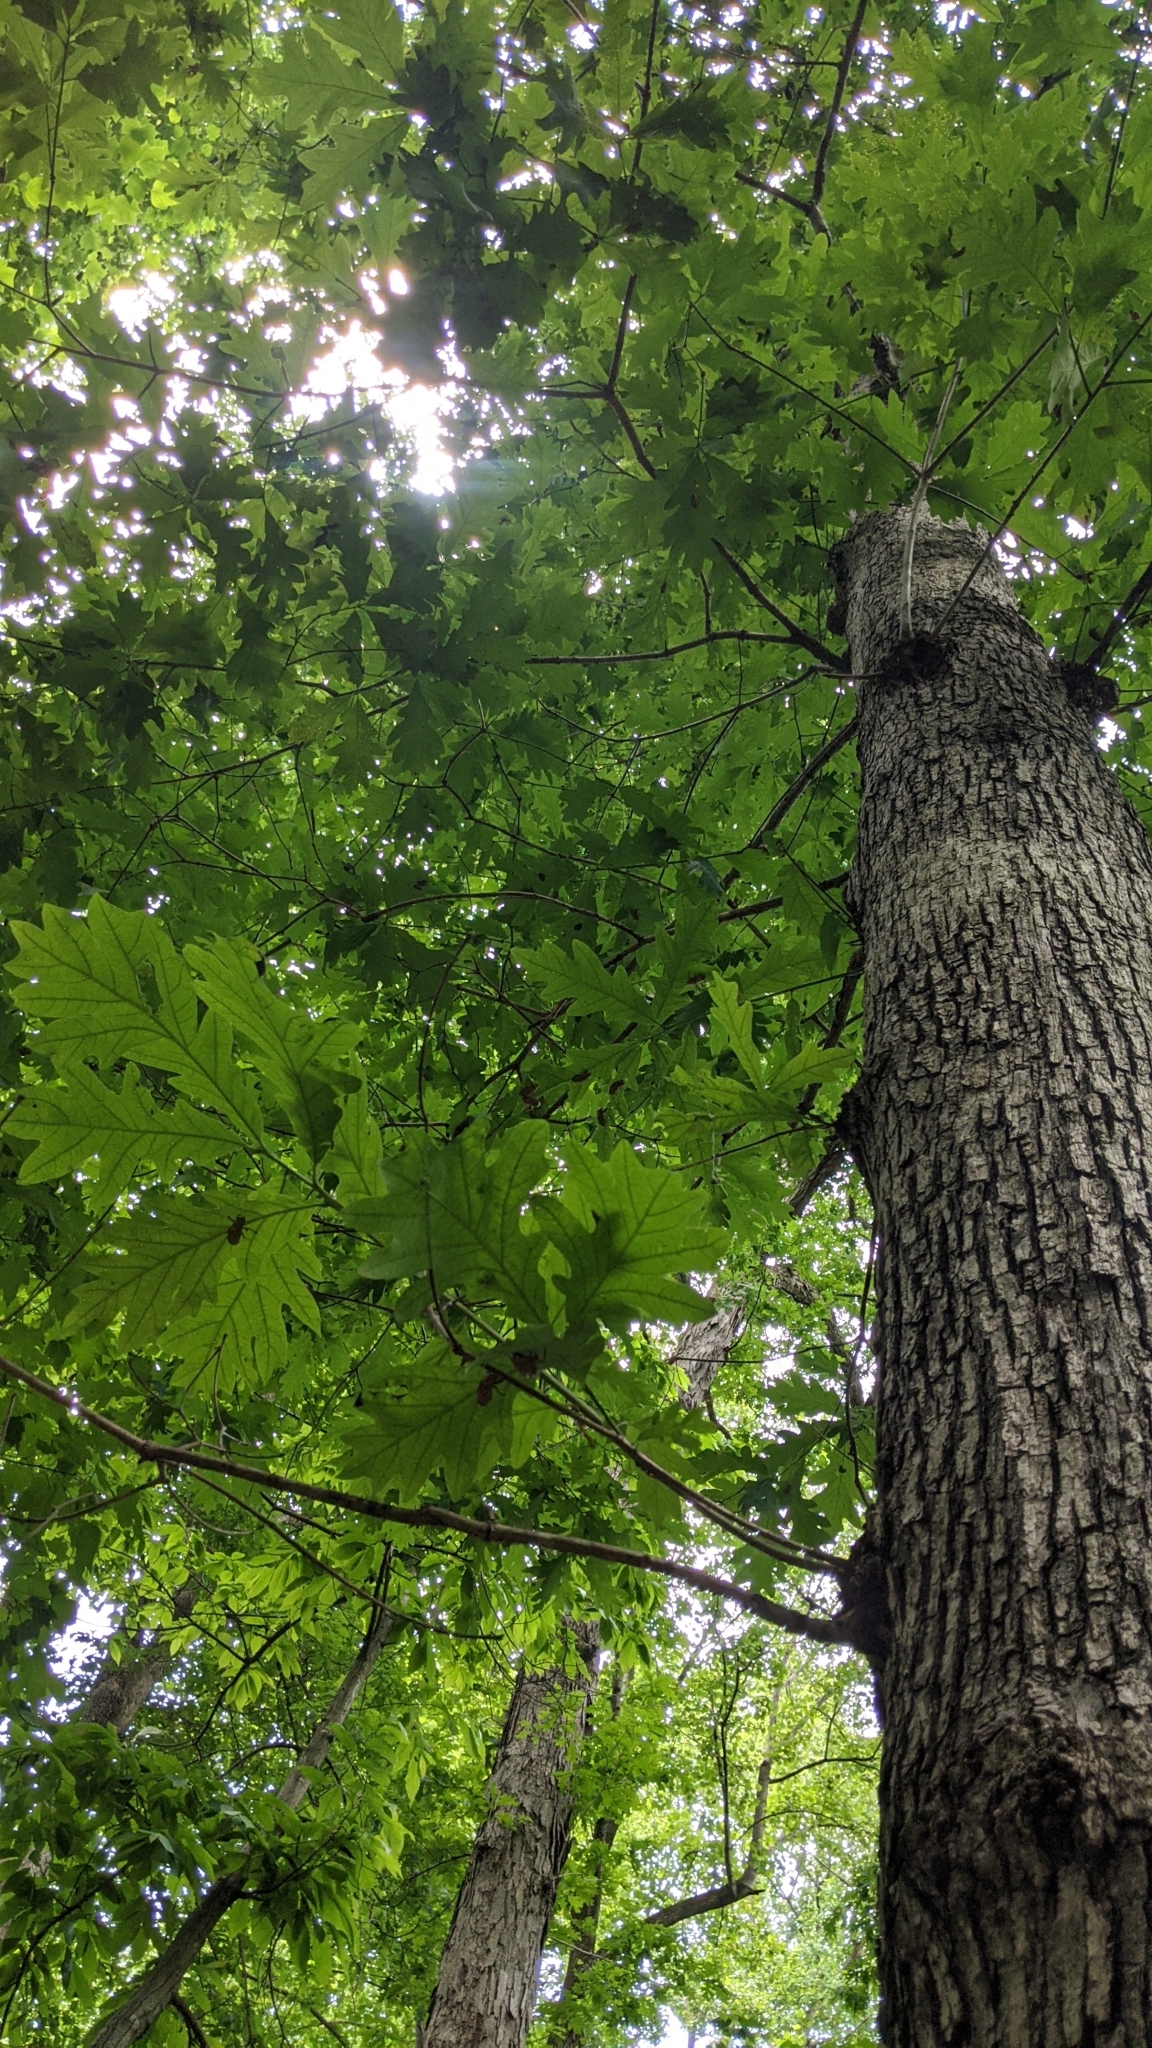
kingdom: Plantae
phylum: Tracheophyta
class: Magnoliopsida
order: Fagales
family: Fagaceae
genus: Quercus
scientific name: Quercus alba
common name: White oak
